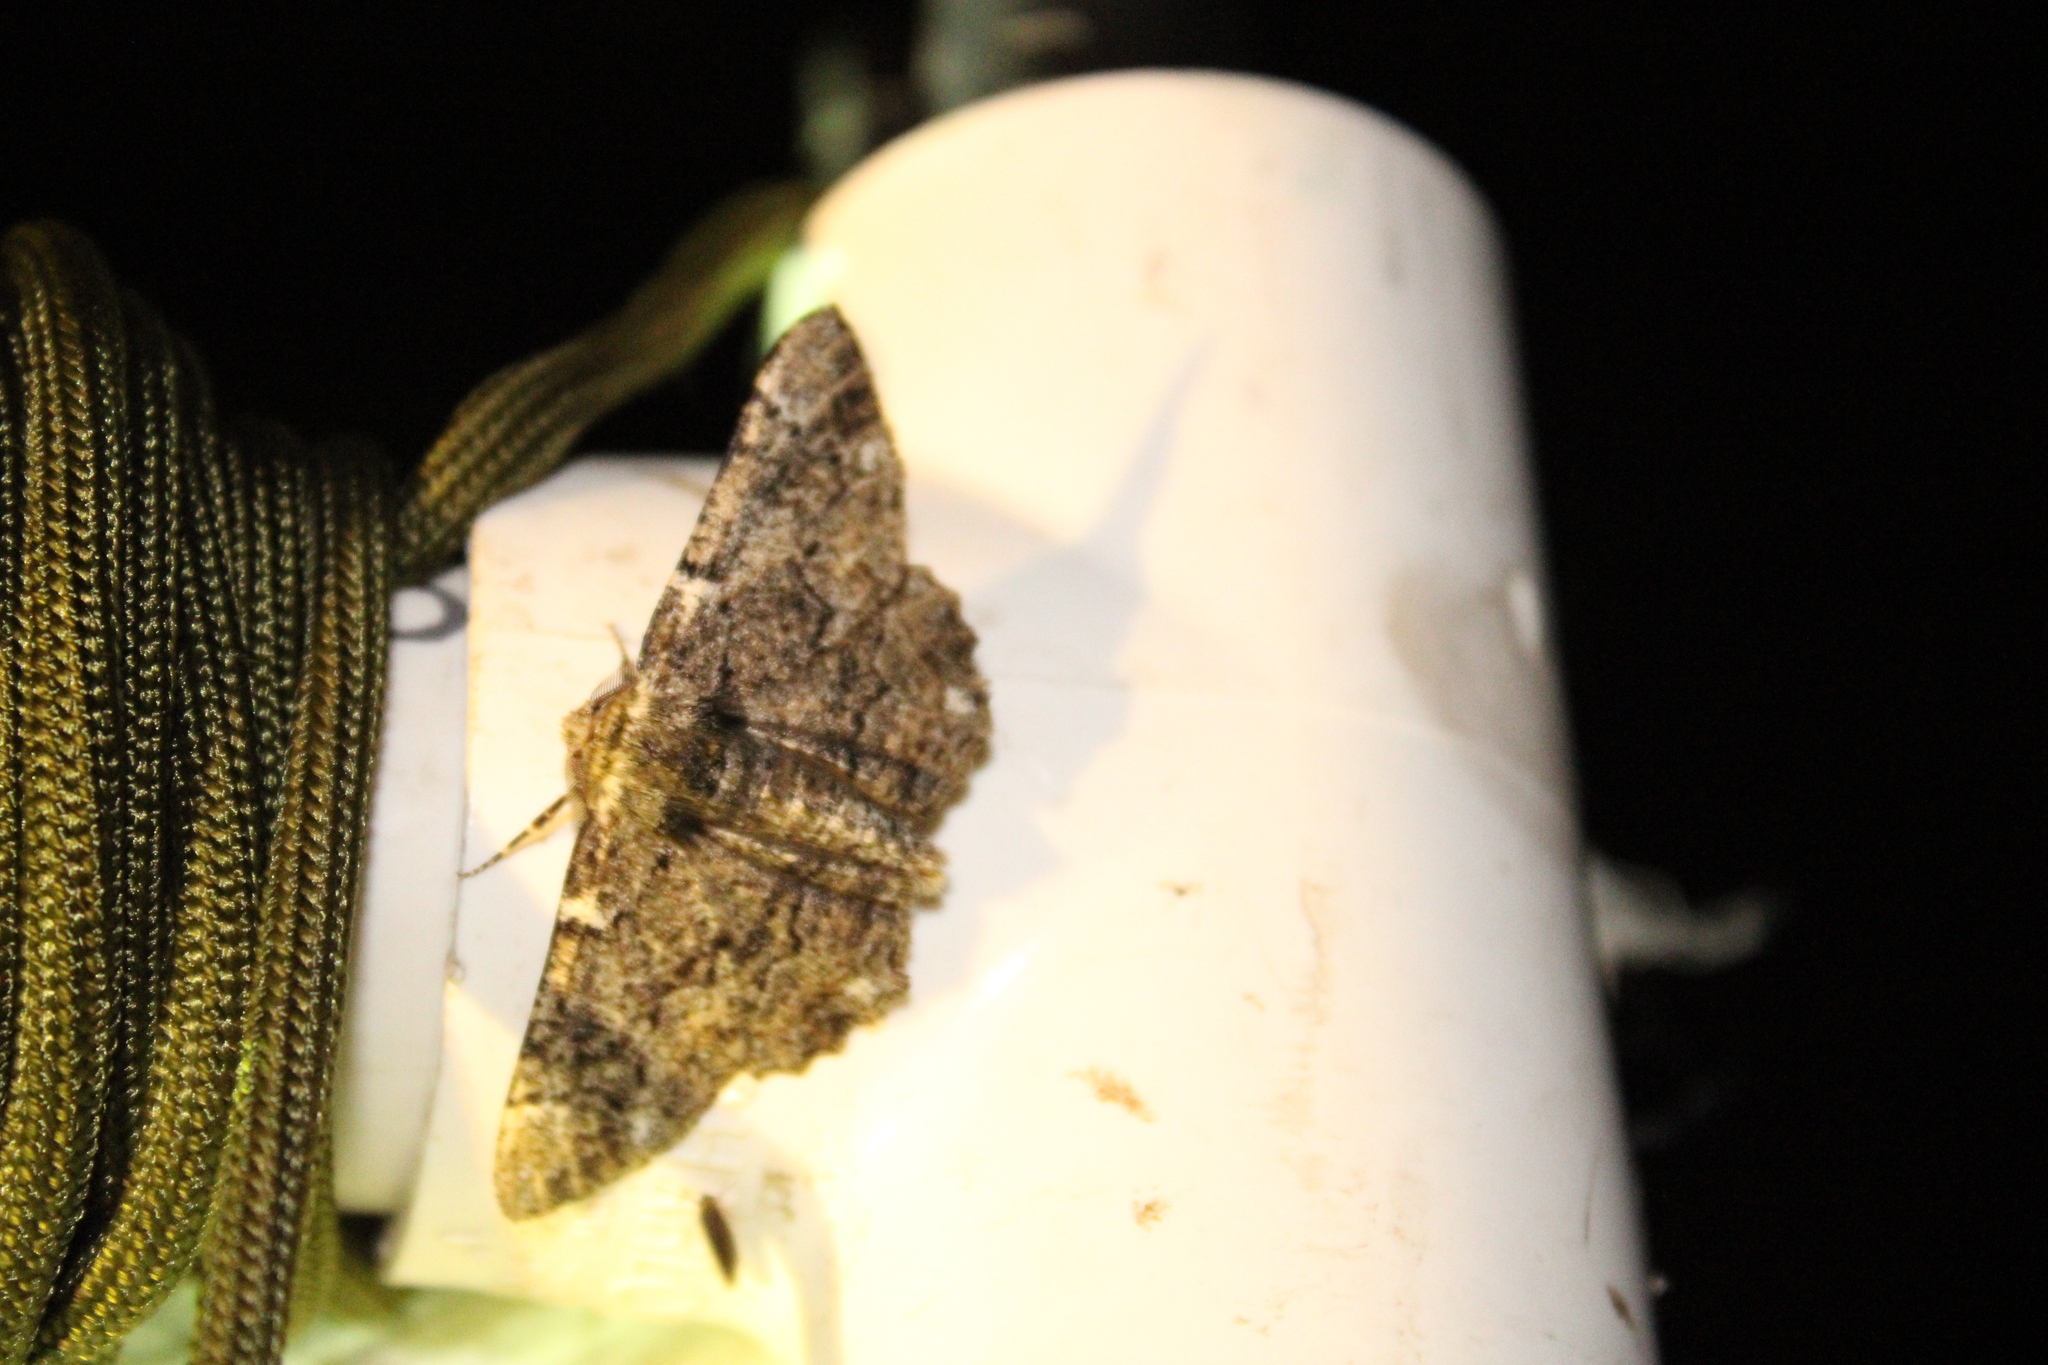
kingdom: Animalia
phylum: Arthropoda
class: Insecta
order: Lepidoptera
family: Geometridae
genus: Phaeoura
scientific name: Phaeoura quernaria
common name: Oak beauty
